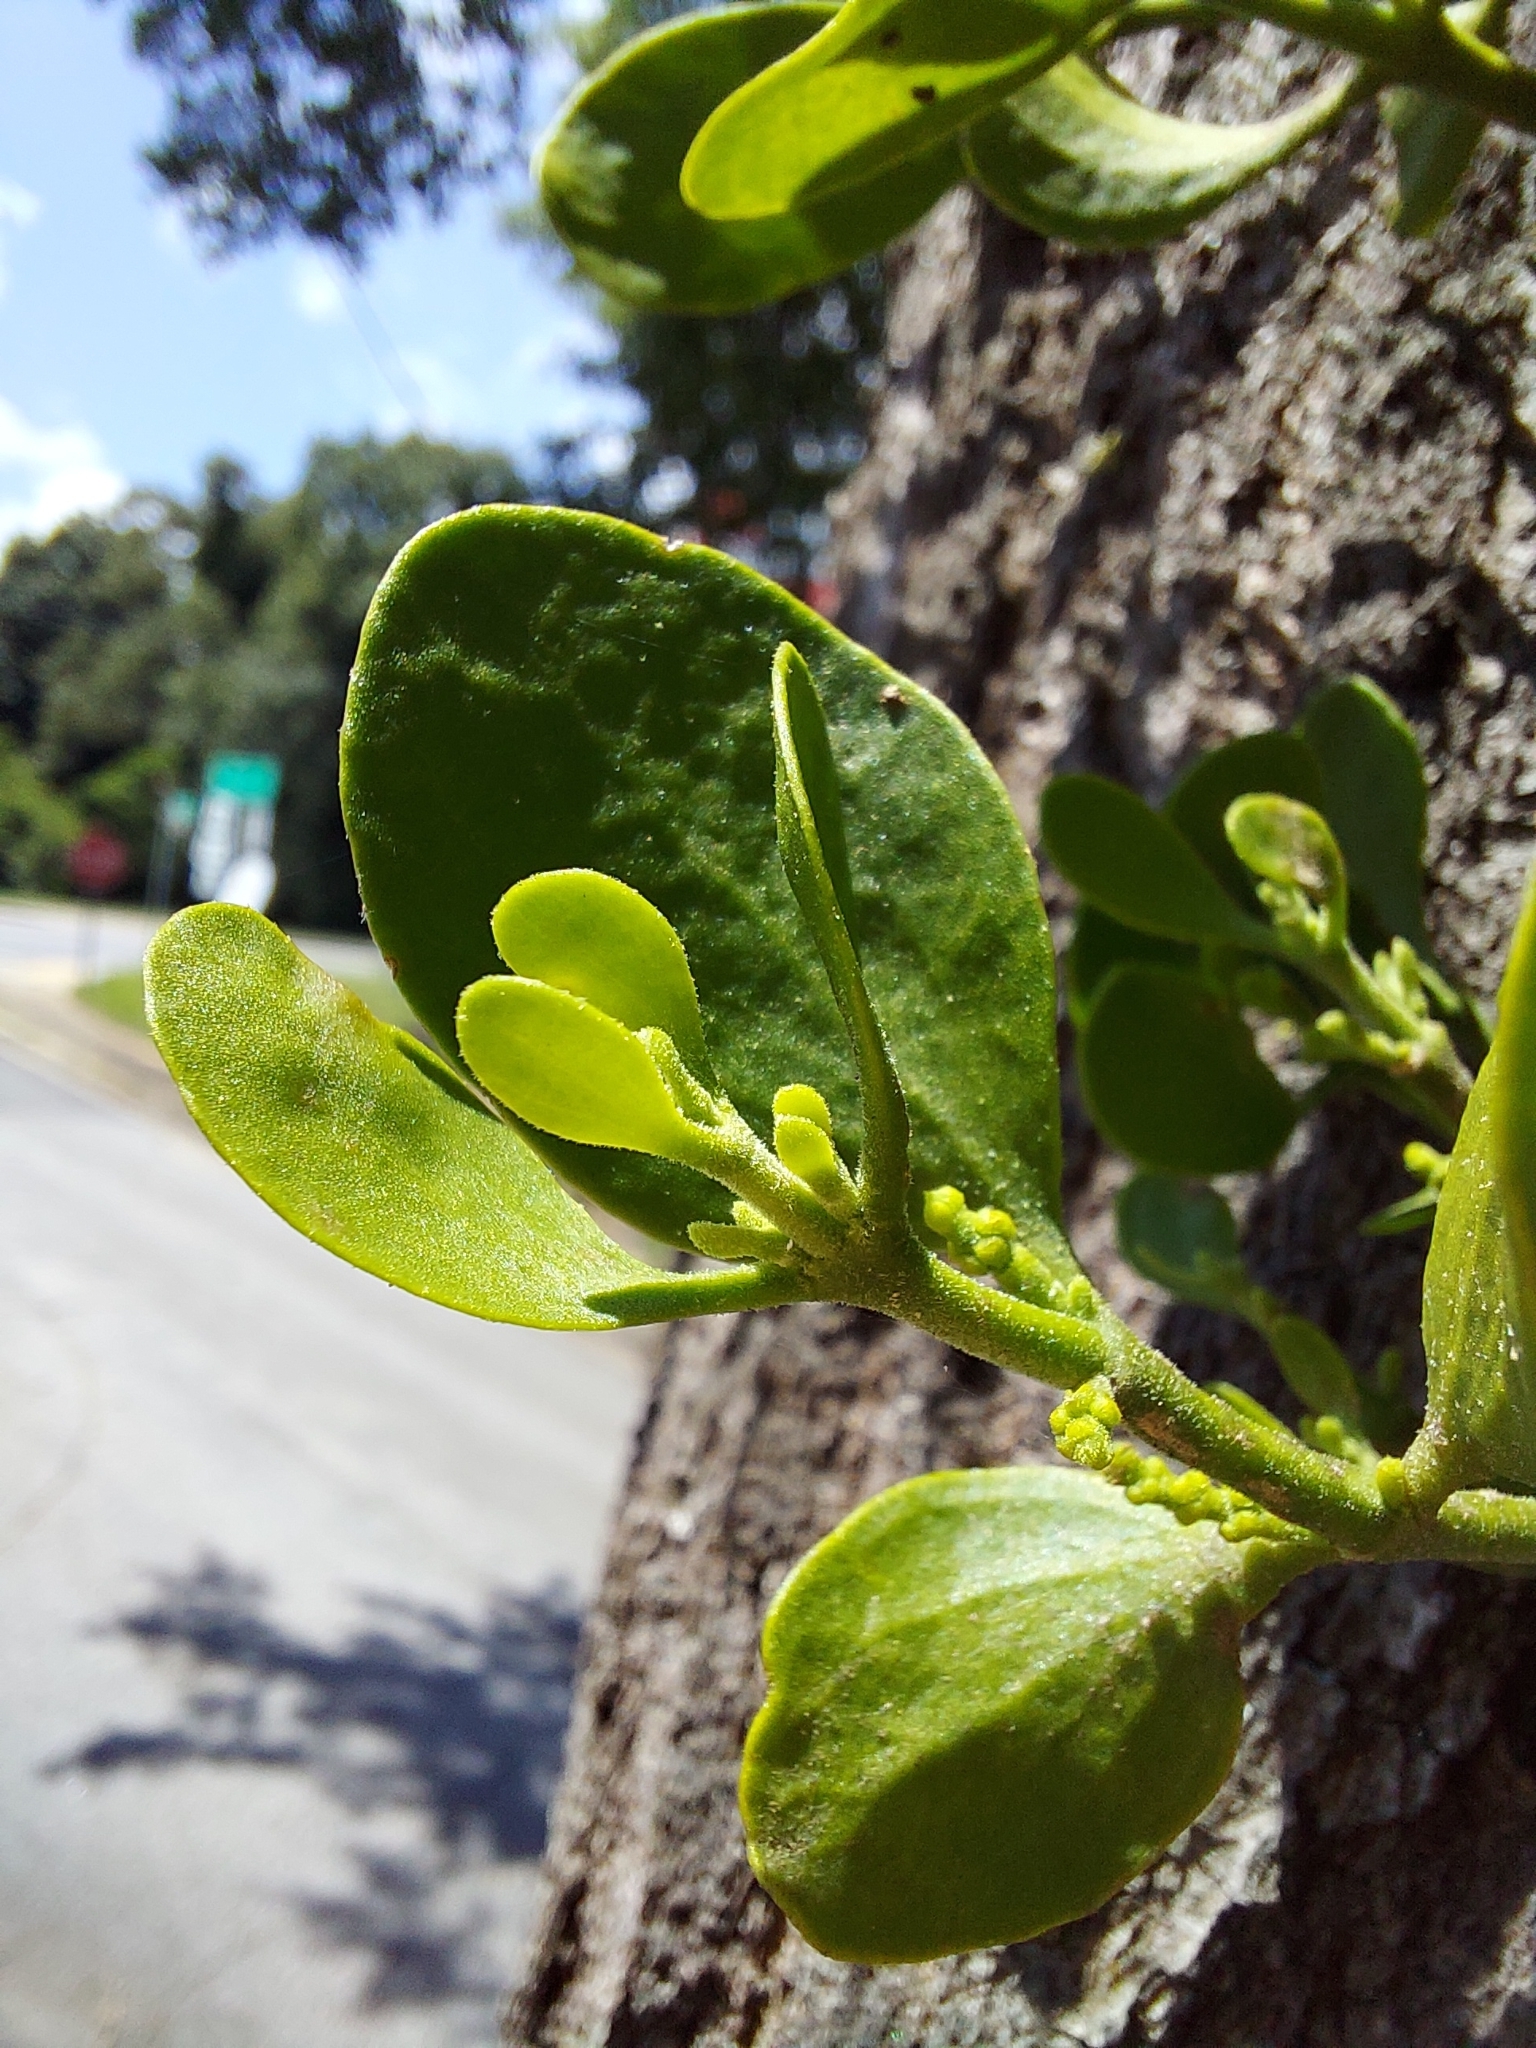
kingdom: Plantae
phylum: Tracheophyta
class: Magnoliopsida
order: Santalales
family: Viscaceae
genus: Phoradendron
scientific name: Phoradendron leucarpum
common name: Pacific mistletoe
